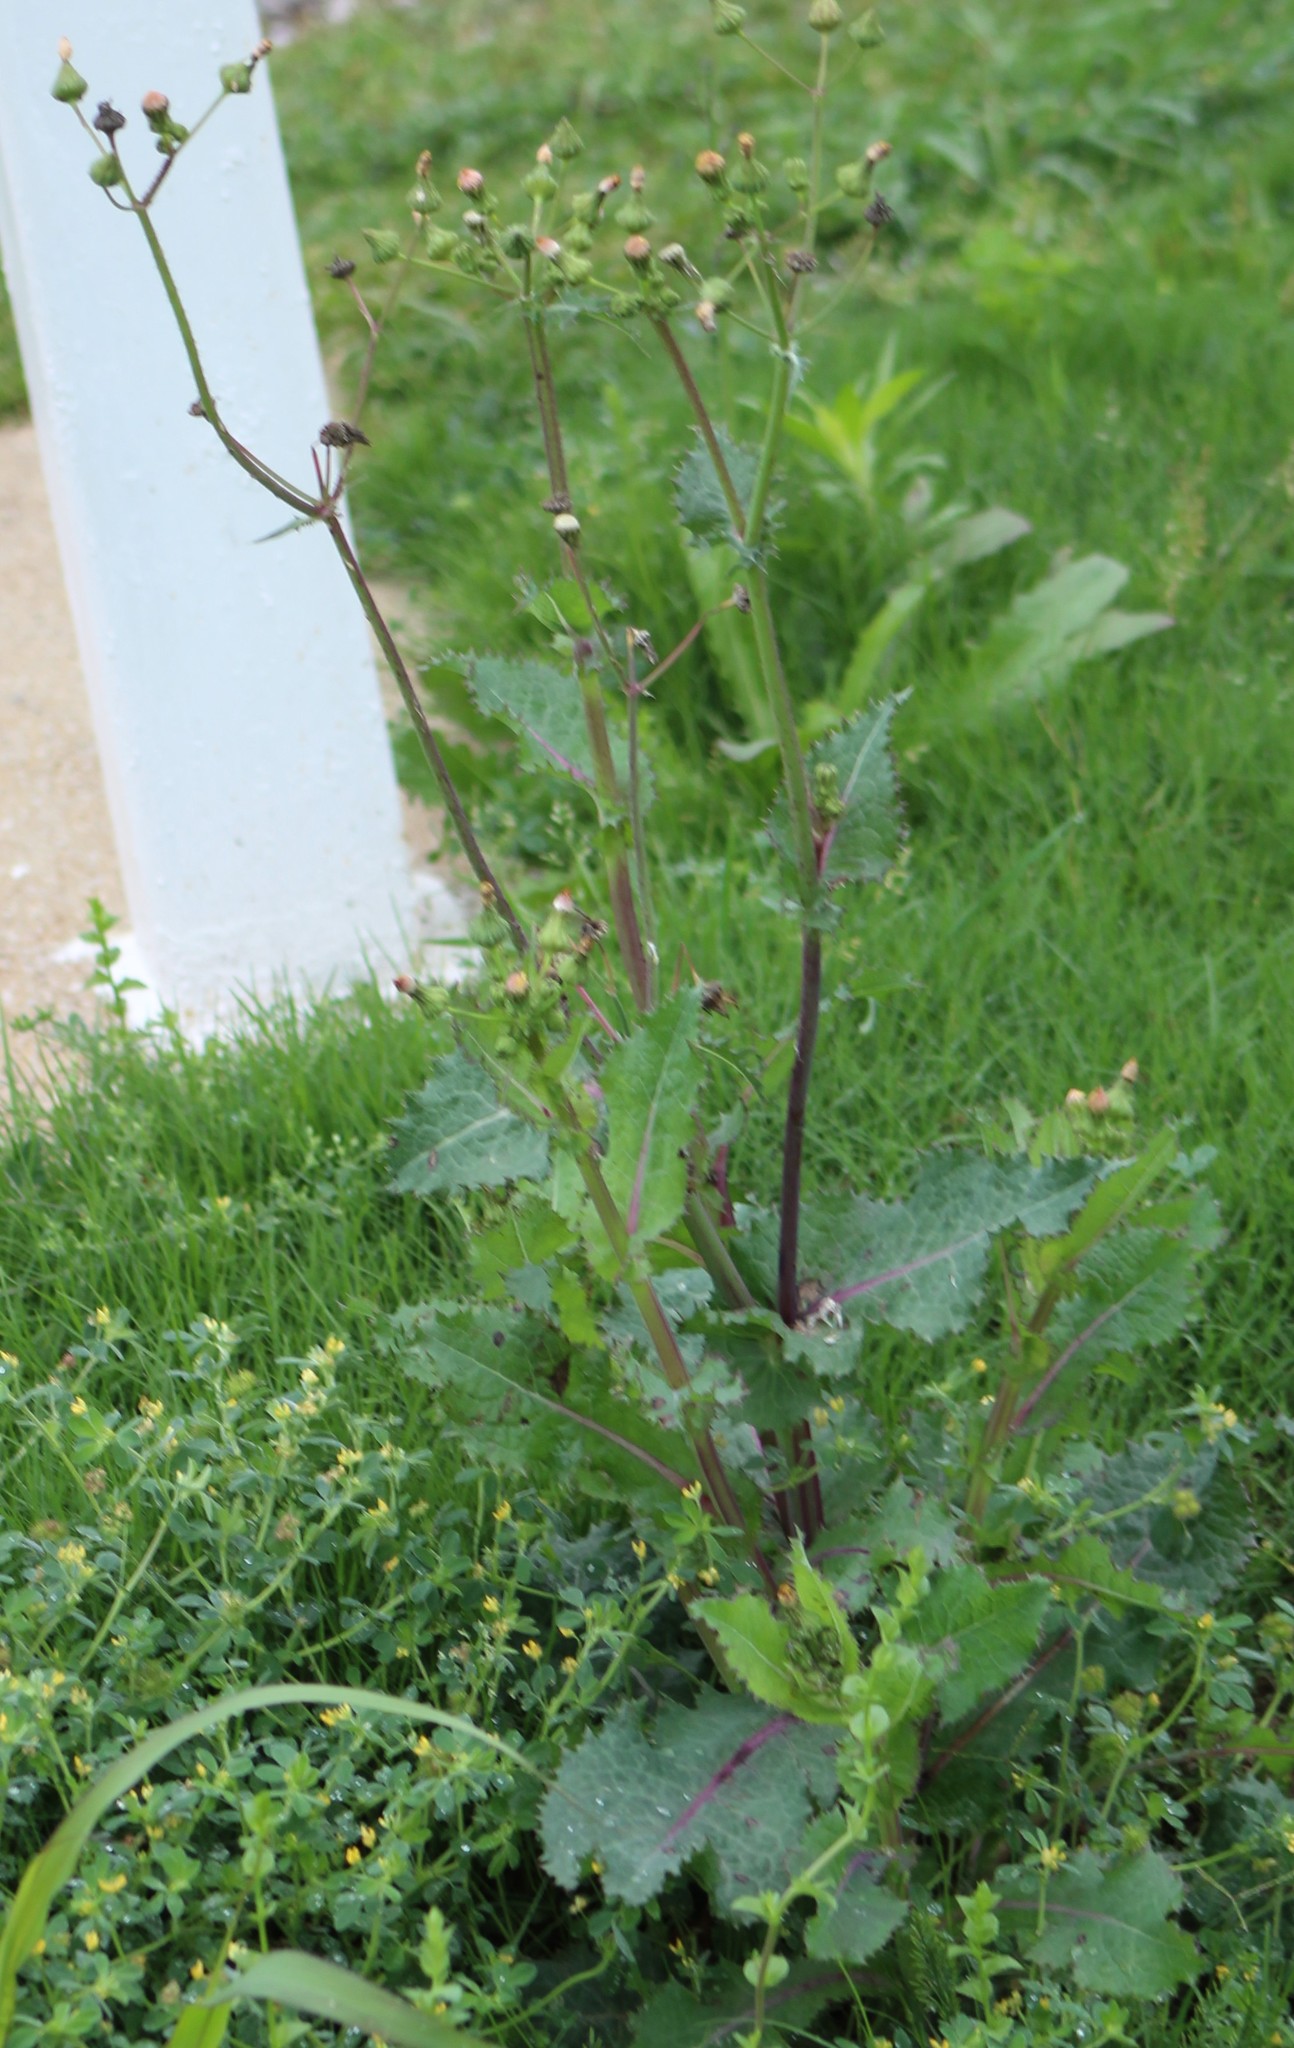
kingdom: Plantae
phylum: Tracheophyta
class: Magnoliopsida
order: Asterales
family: Asteraceae
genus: Sonchus
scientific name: Sonchus asper
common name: Prickly sow-thistle
